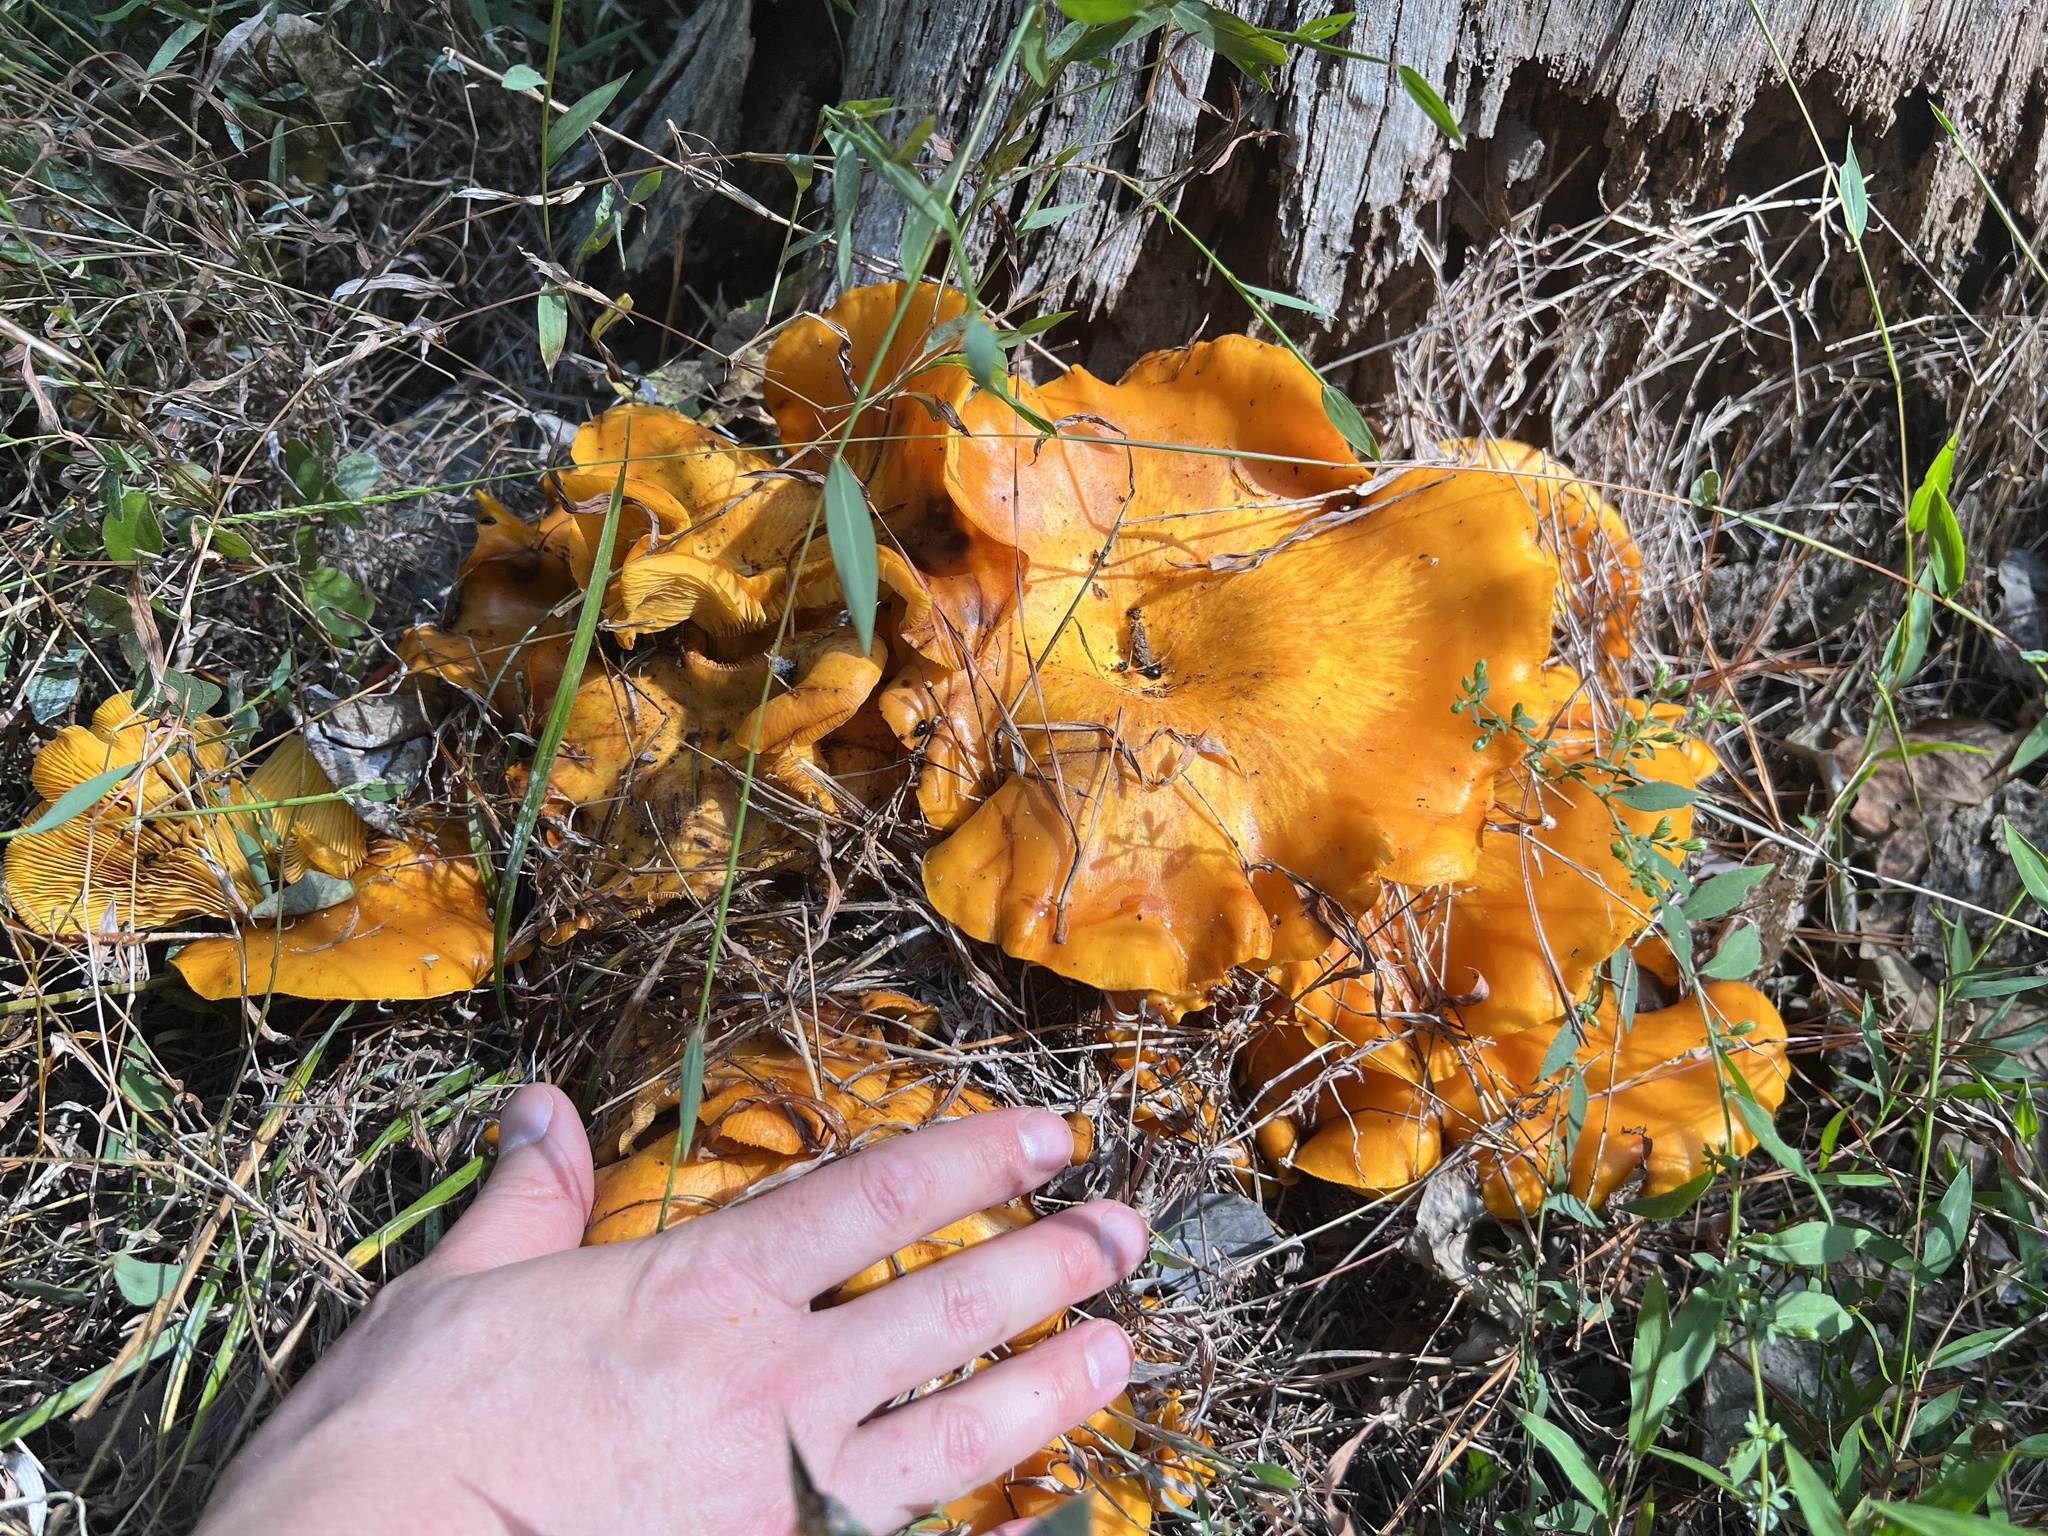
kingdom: Fungi
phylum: Basidiomycota
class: Agaricomycetes
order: Agaricales
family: Omphalotaceae
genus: Omphalotus
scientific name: Omphalotus illudens
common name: Jack o lantern
